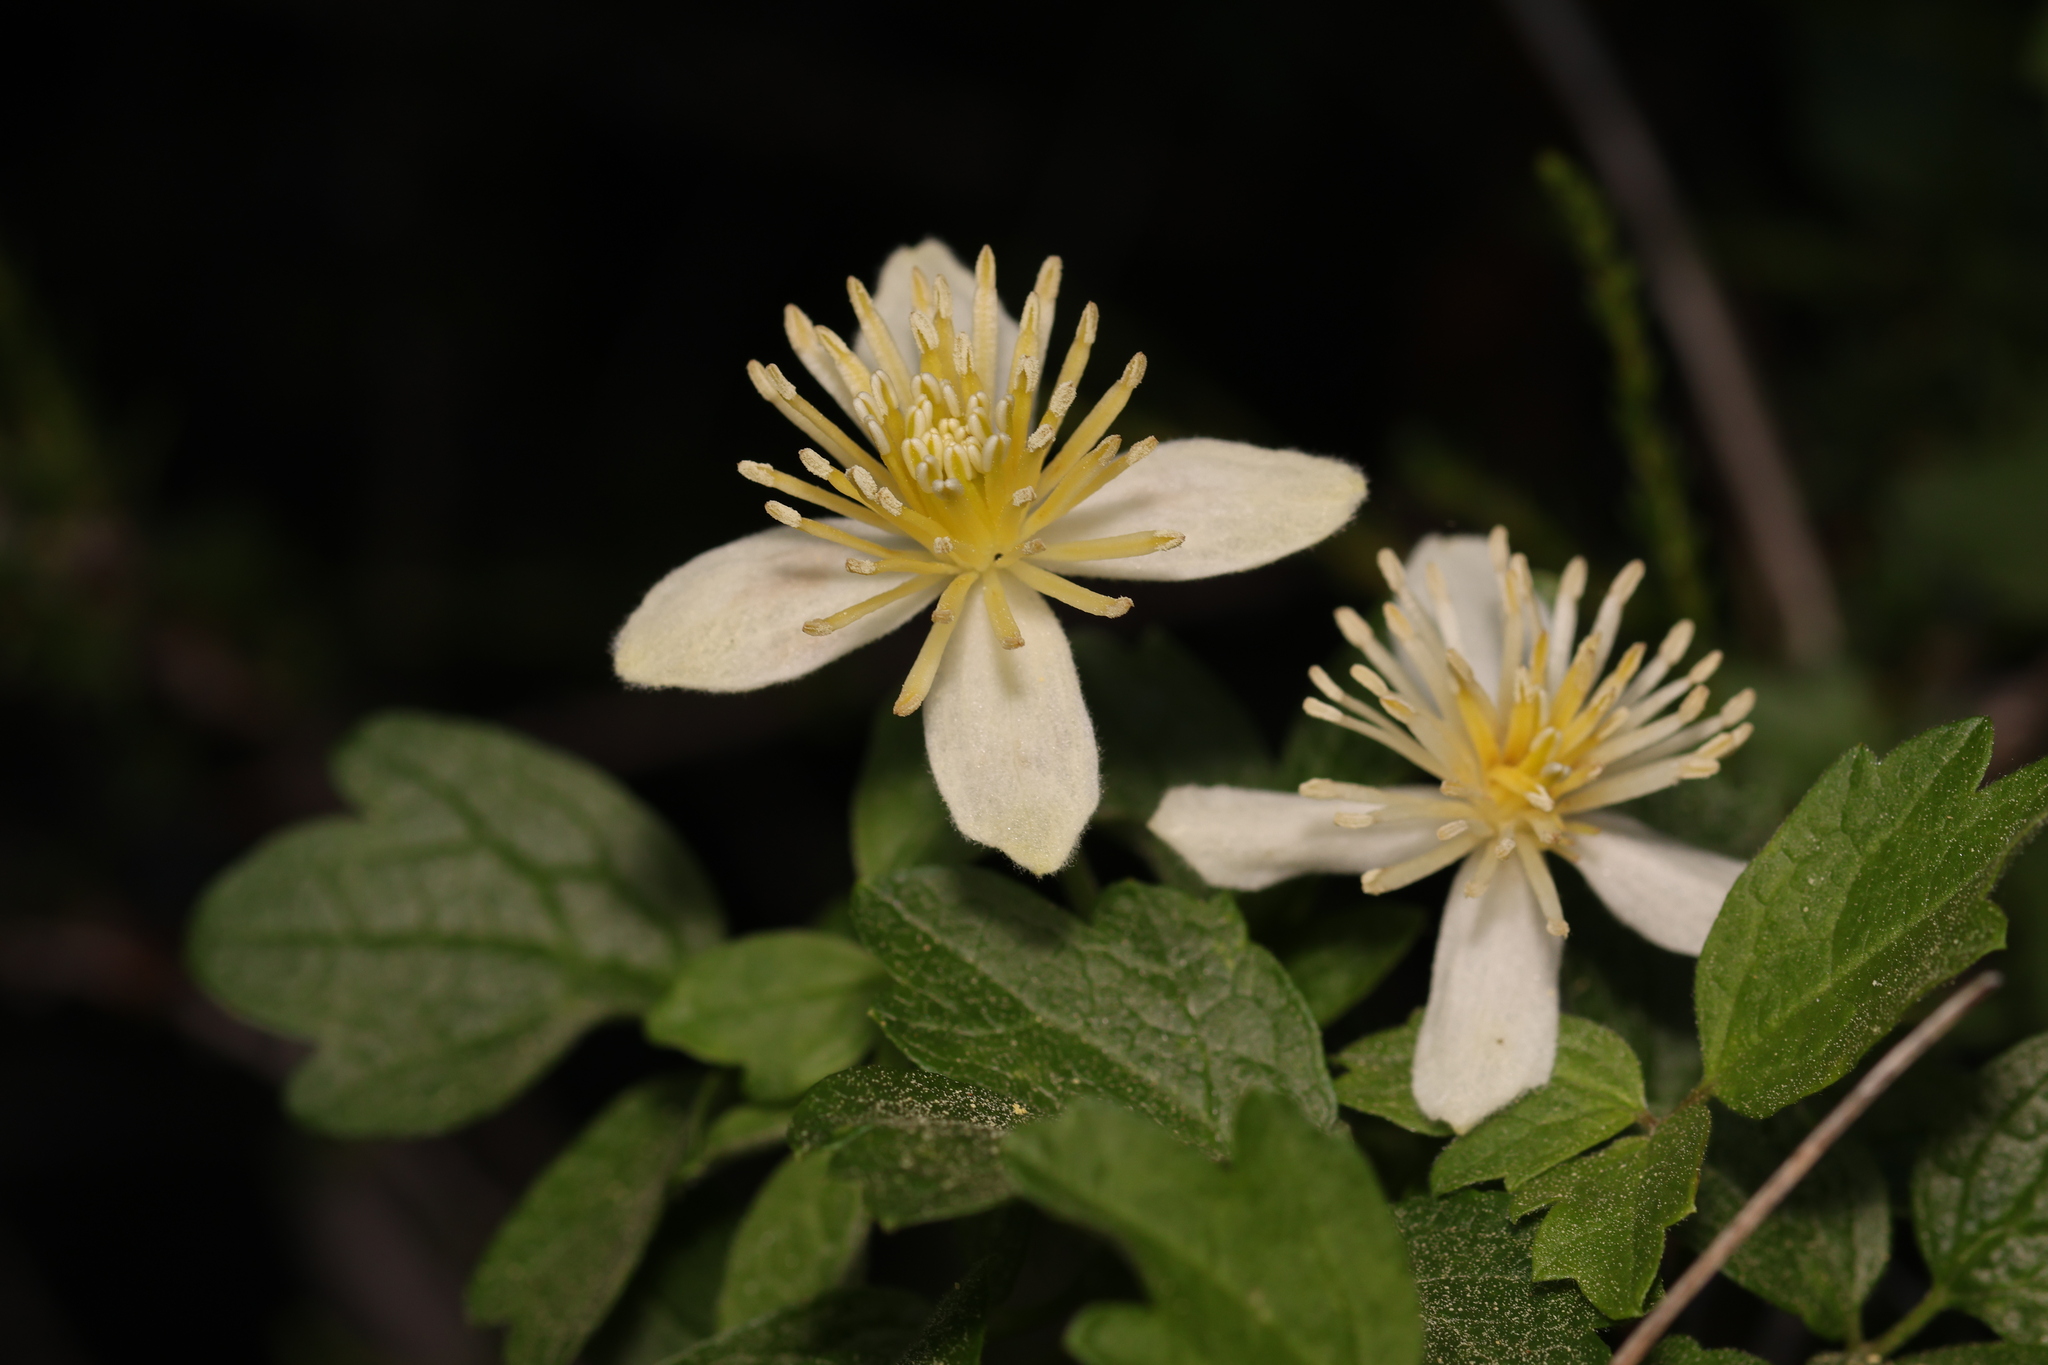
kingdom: Plantae
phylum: Tracheophyta
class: Magnoliopsida
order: Ranunculales
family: Ranunculaceae
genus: Clematis
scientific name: Clematis lasiantha
